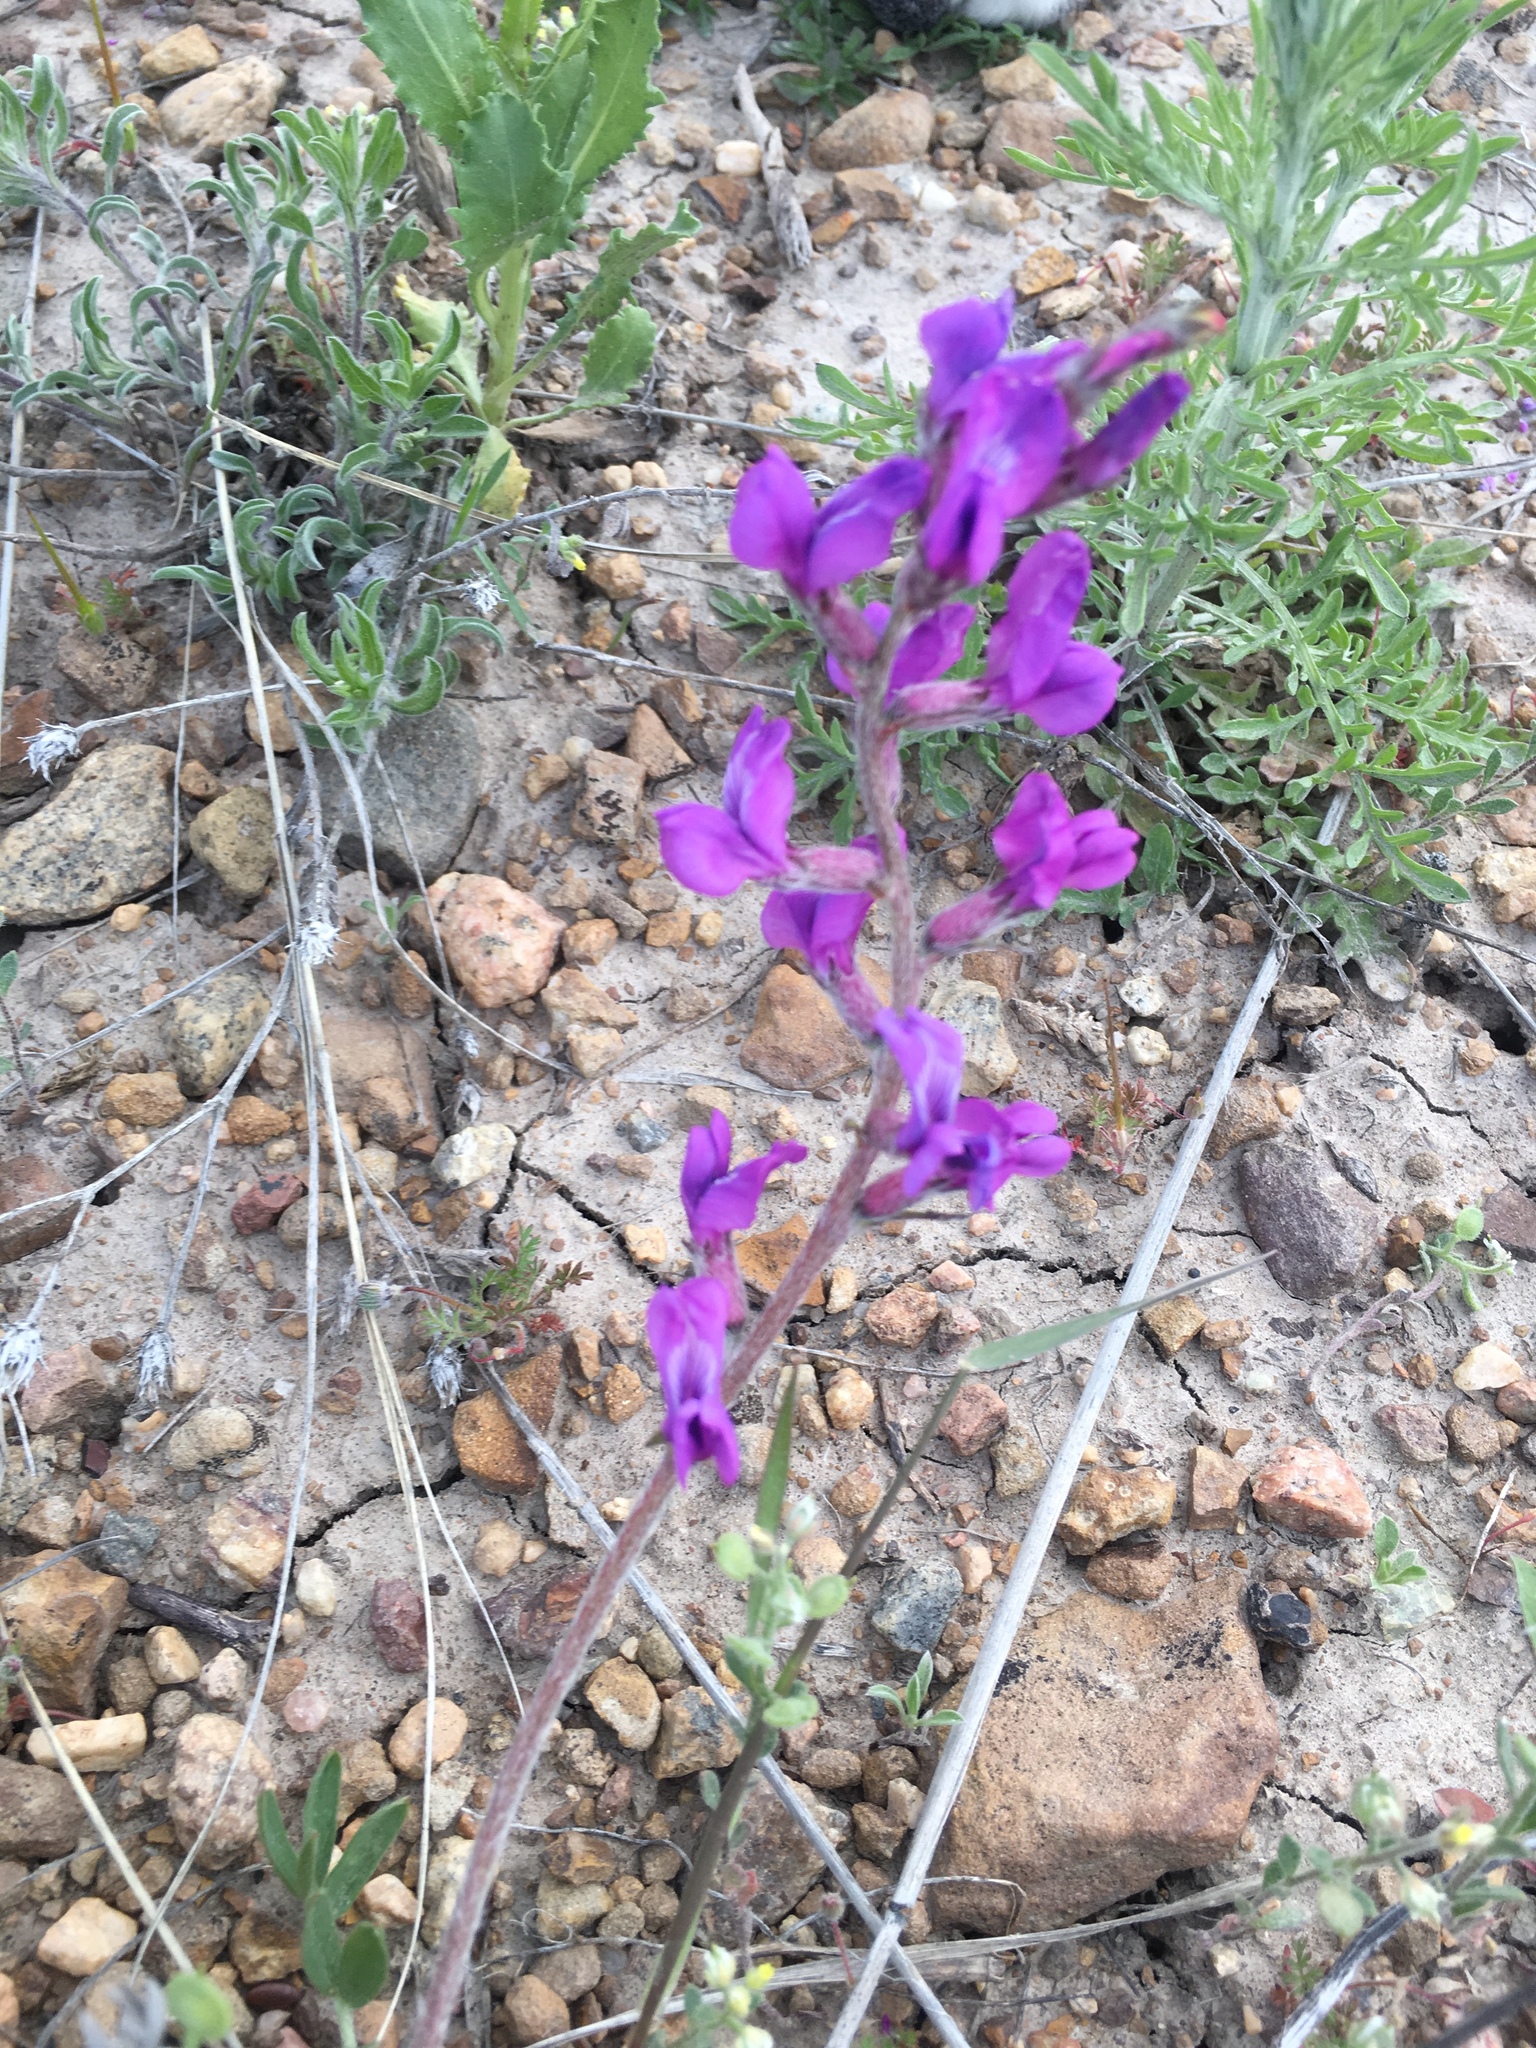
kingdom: Plantae
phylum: Tracheophyta
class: Magnoliopsida
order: Fabales
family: Fabaceae
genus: Oxytropis
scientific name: Oxytropis lambertii
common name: Purple locoweed
